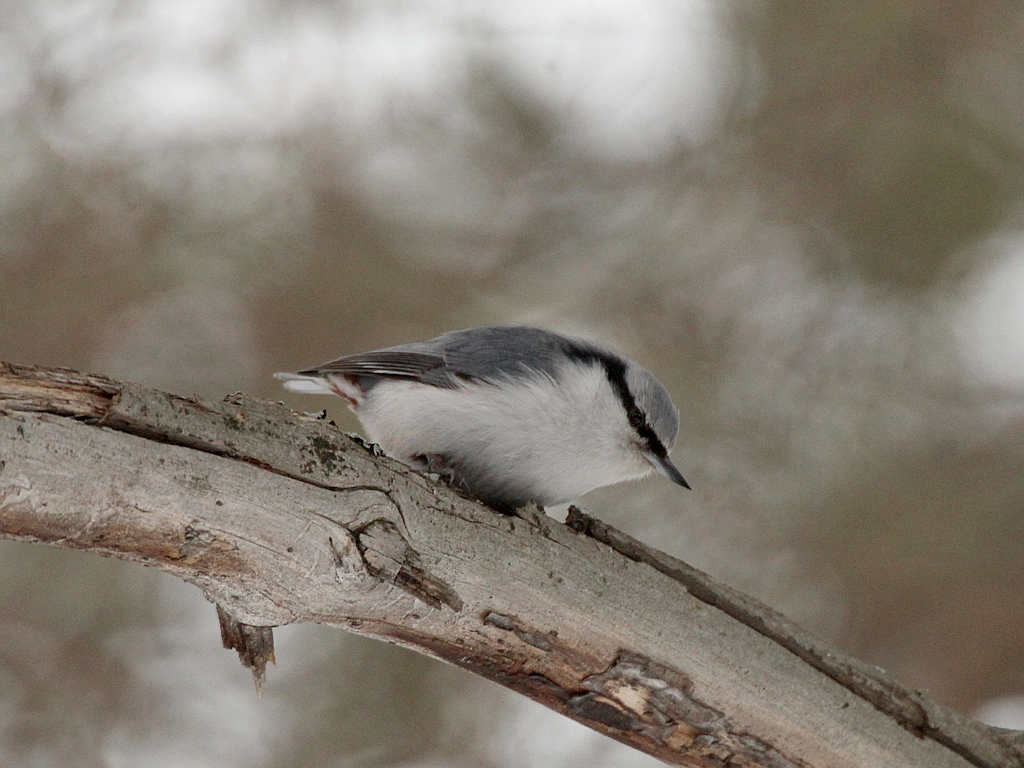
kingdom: Animalia
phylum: Chordata
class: Aves
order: Passeriformes
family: Sittidae
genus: Sitta
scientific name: Sitta europaea
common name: Eurasian nuthatch
